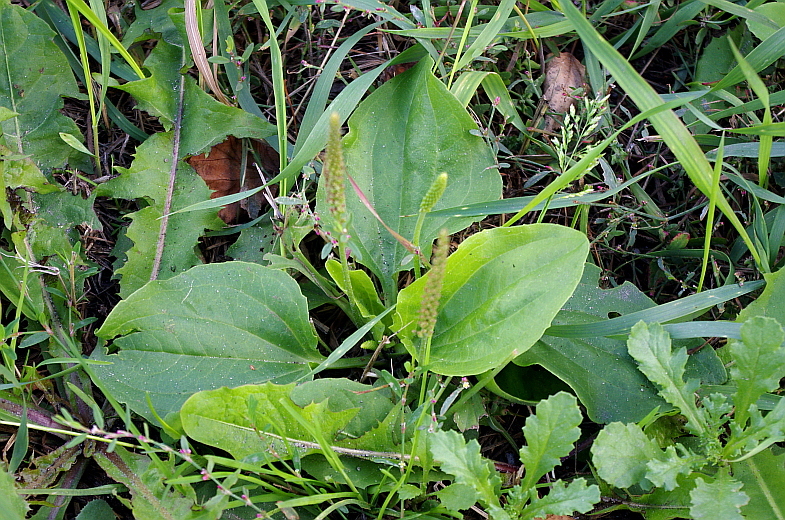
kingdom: Plantae
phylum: Tracheophyta
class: Magnoliopsida
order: Lamiales
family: Plantaginaceae
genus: Plantago
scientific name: Plantago major
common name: Common plantain
